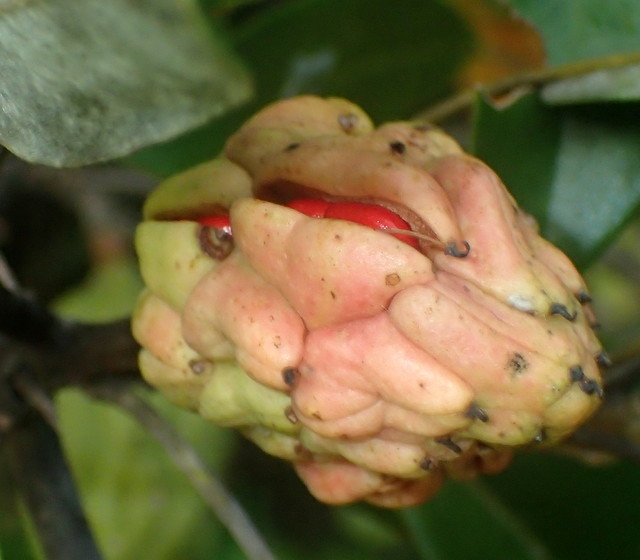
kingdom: Plantae
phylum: Tracheophyta
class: Magnoliopsida
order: Magnoliales
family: Magnoliaceae
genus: Magnolia
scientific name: Magnolia virginiana
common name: Swamp bay
